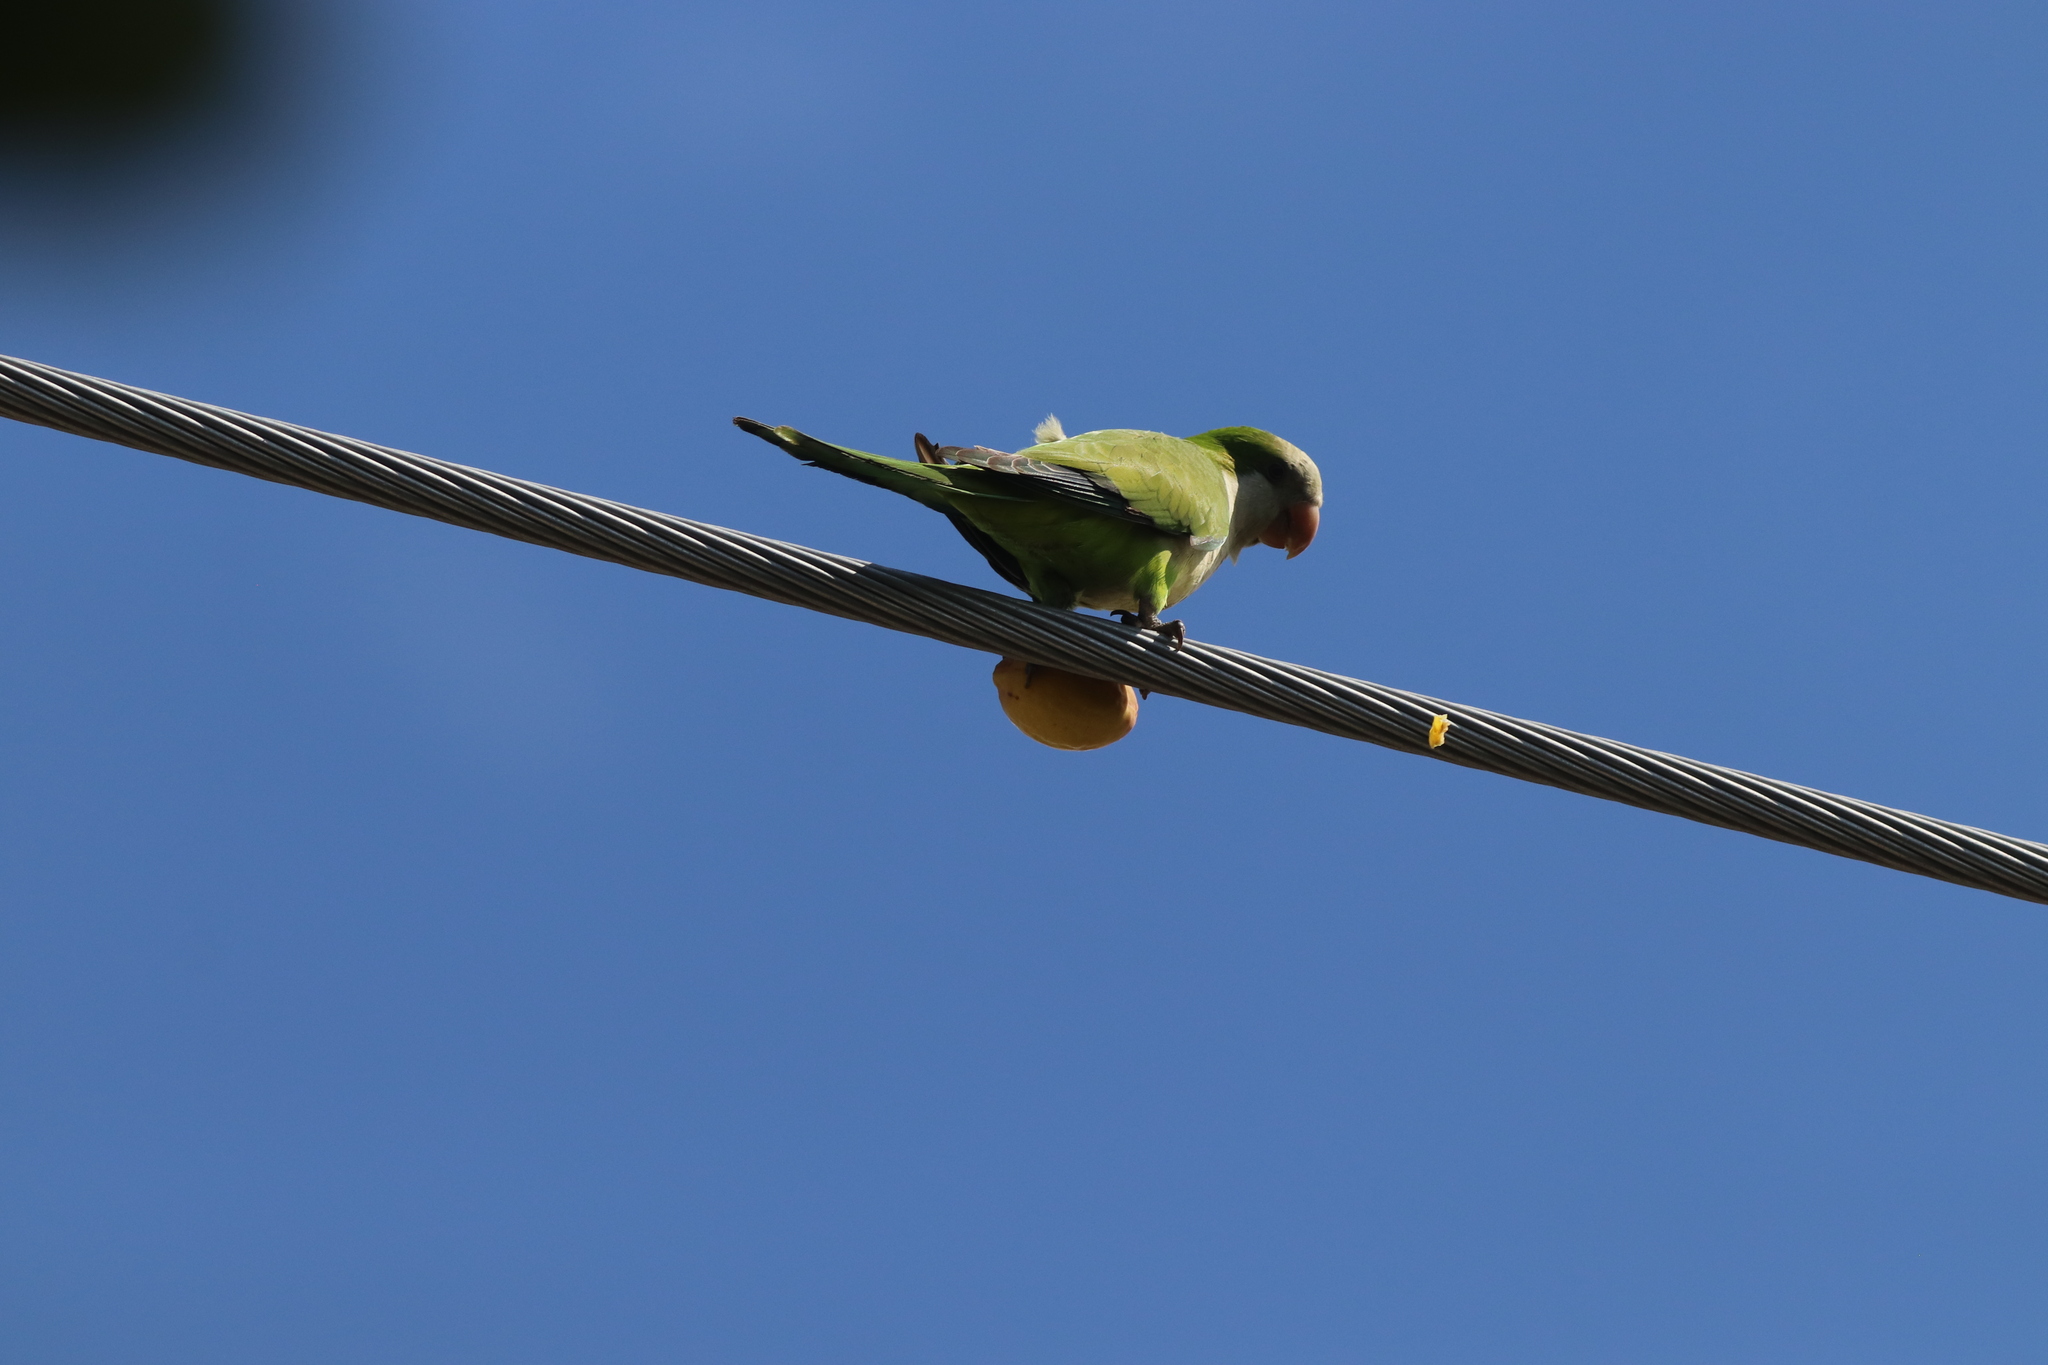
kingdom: Animalia
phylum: Chordata
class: Aves
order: Psittaciformes
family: Psittacidae
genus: Myiopsitta
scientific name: Myiopsitta monachus
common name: Monk parakeet
